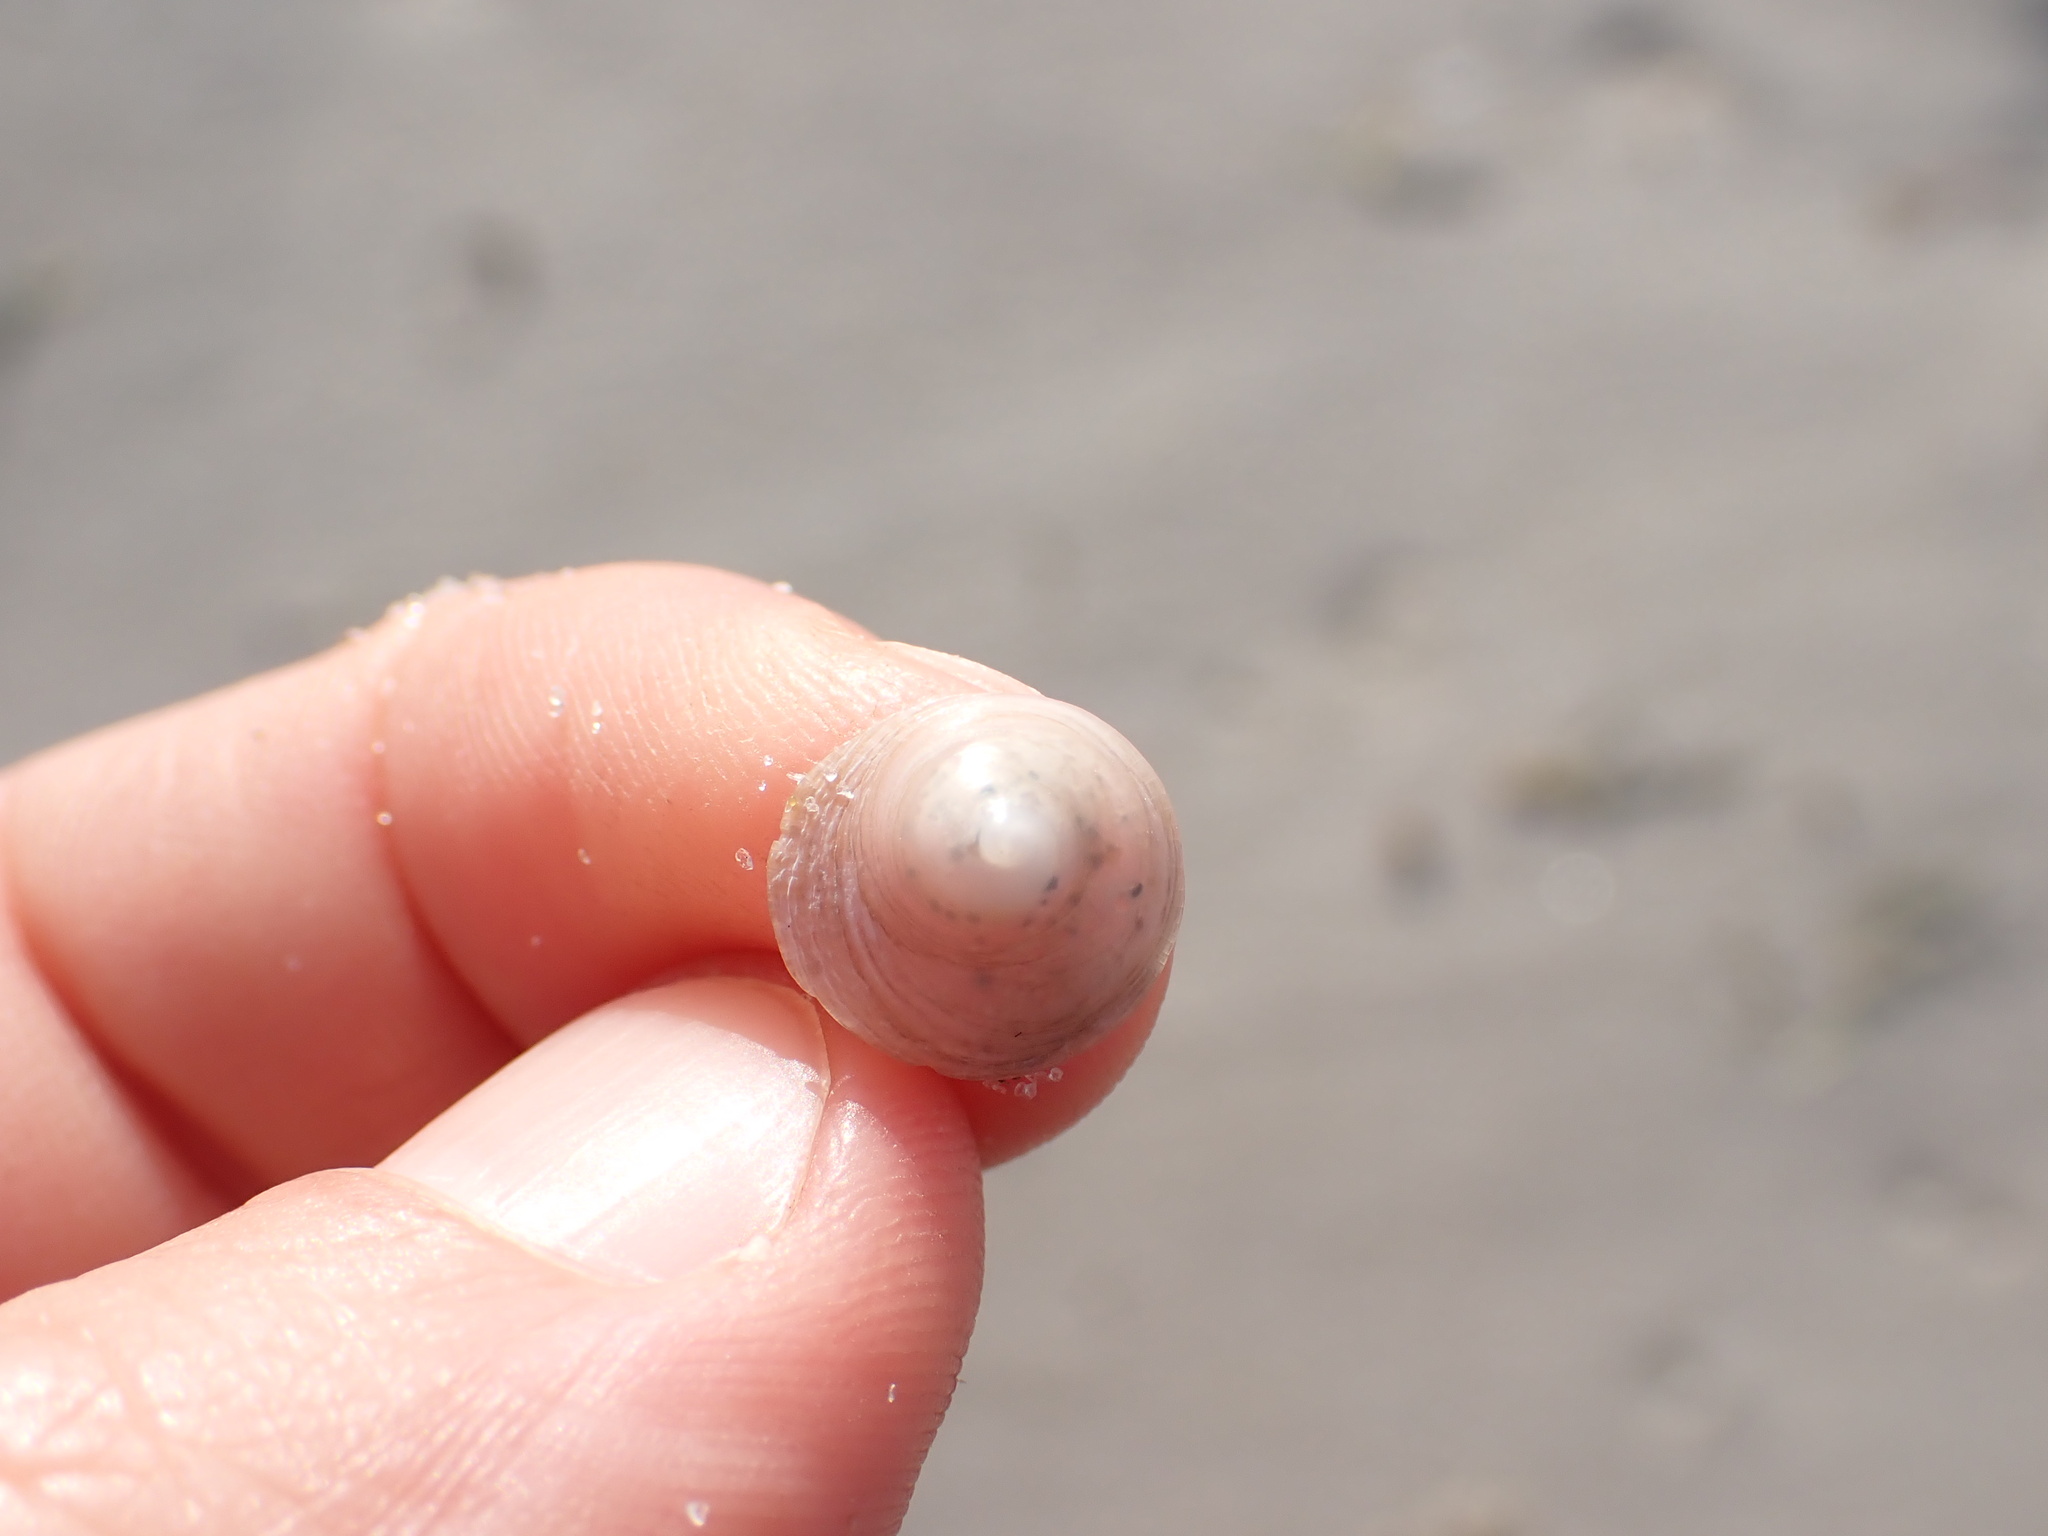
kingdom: Animalia
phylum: Mollusca
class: Gastropoda
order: Littorinimorpha
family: Calyptraeidae
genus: Sigapatella
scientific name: Sigapatella tenuis
